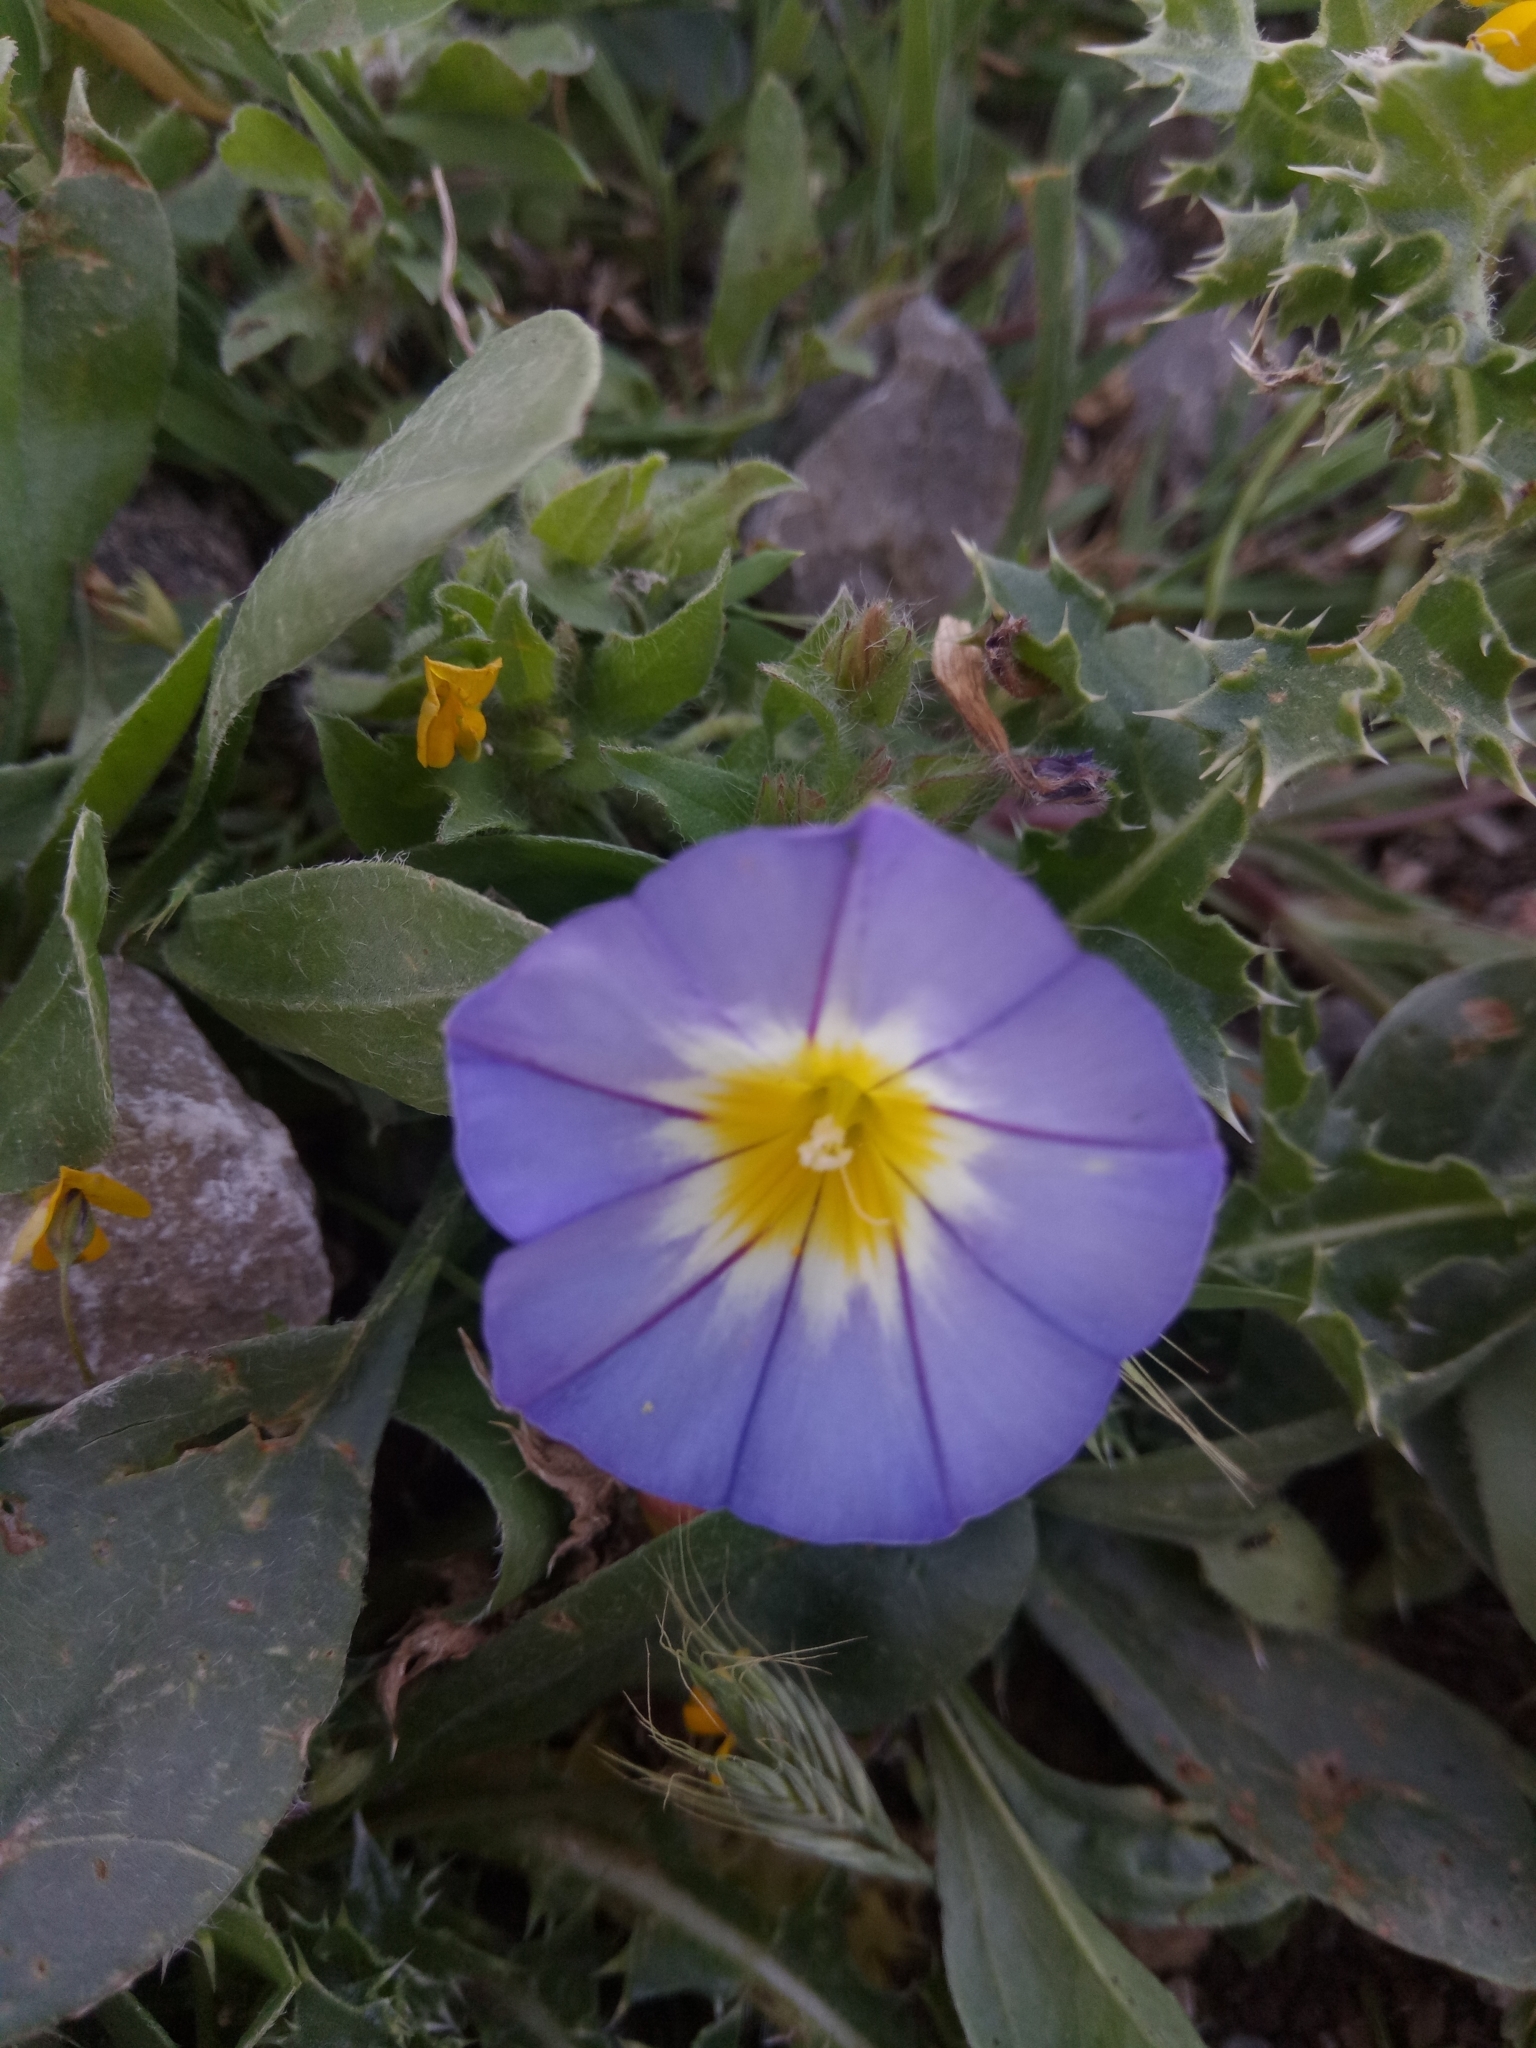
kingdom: Plantae
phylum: Tracheophyta
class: Magnoliopsida
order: Solanales
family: Convolvulaceae
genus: Convolvulus
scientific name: Convolvulus tricolor
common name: Dwarf morning-glory
